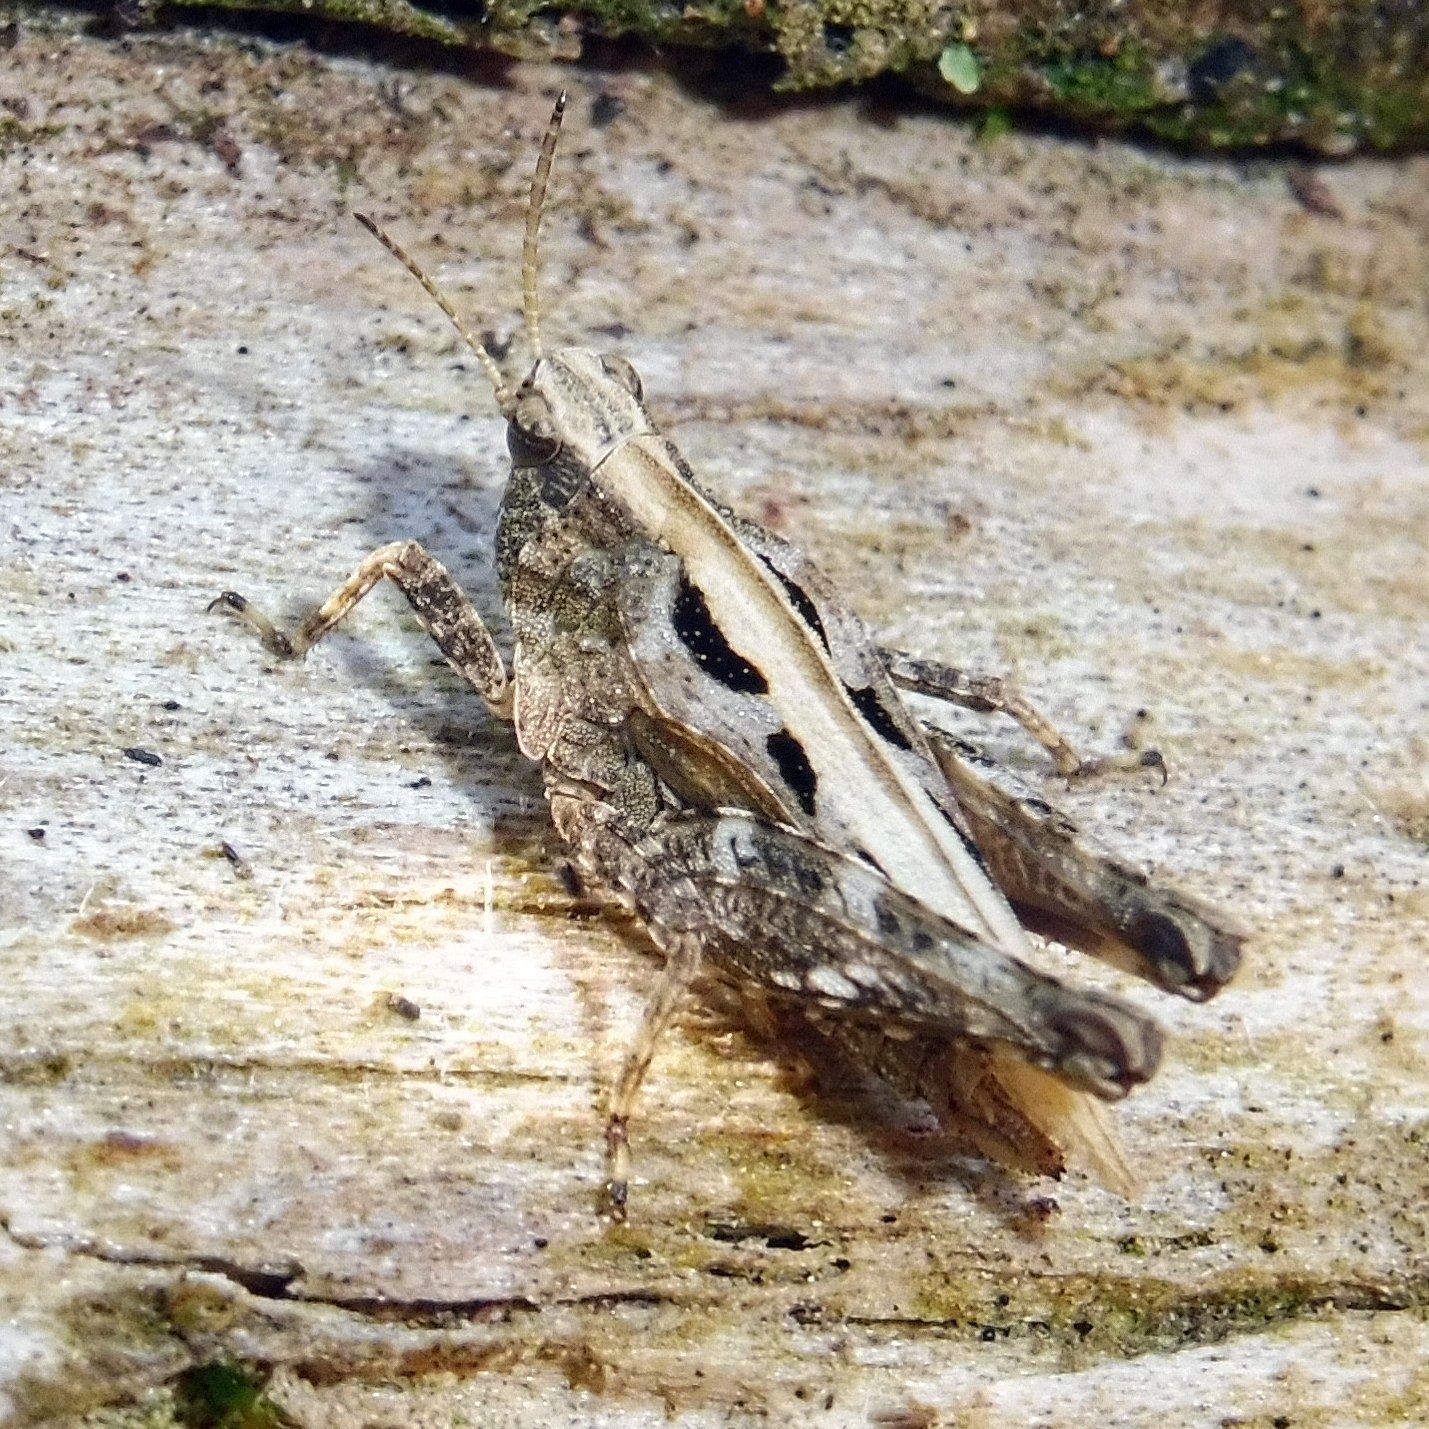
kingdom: Animalia
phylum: Arthropoda
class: Insecta
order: Orthoptera
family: Tetrigidae
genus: Tetrix
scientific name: Tetrix undulata
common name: Common groundhopper
